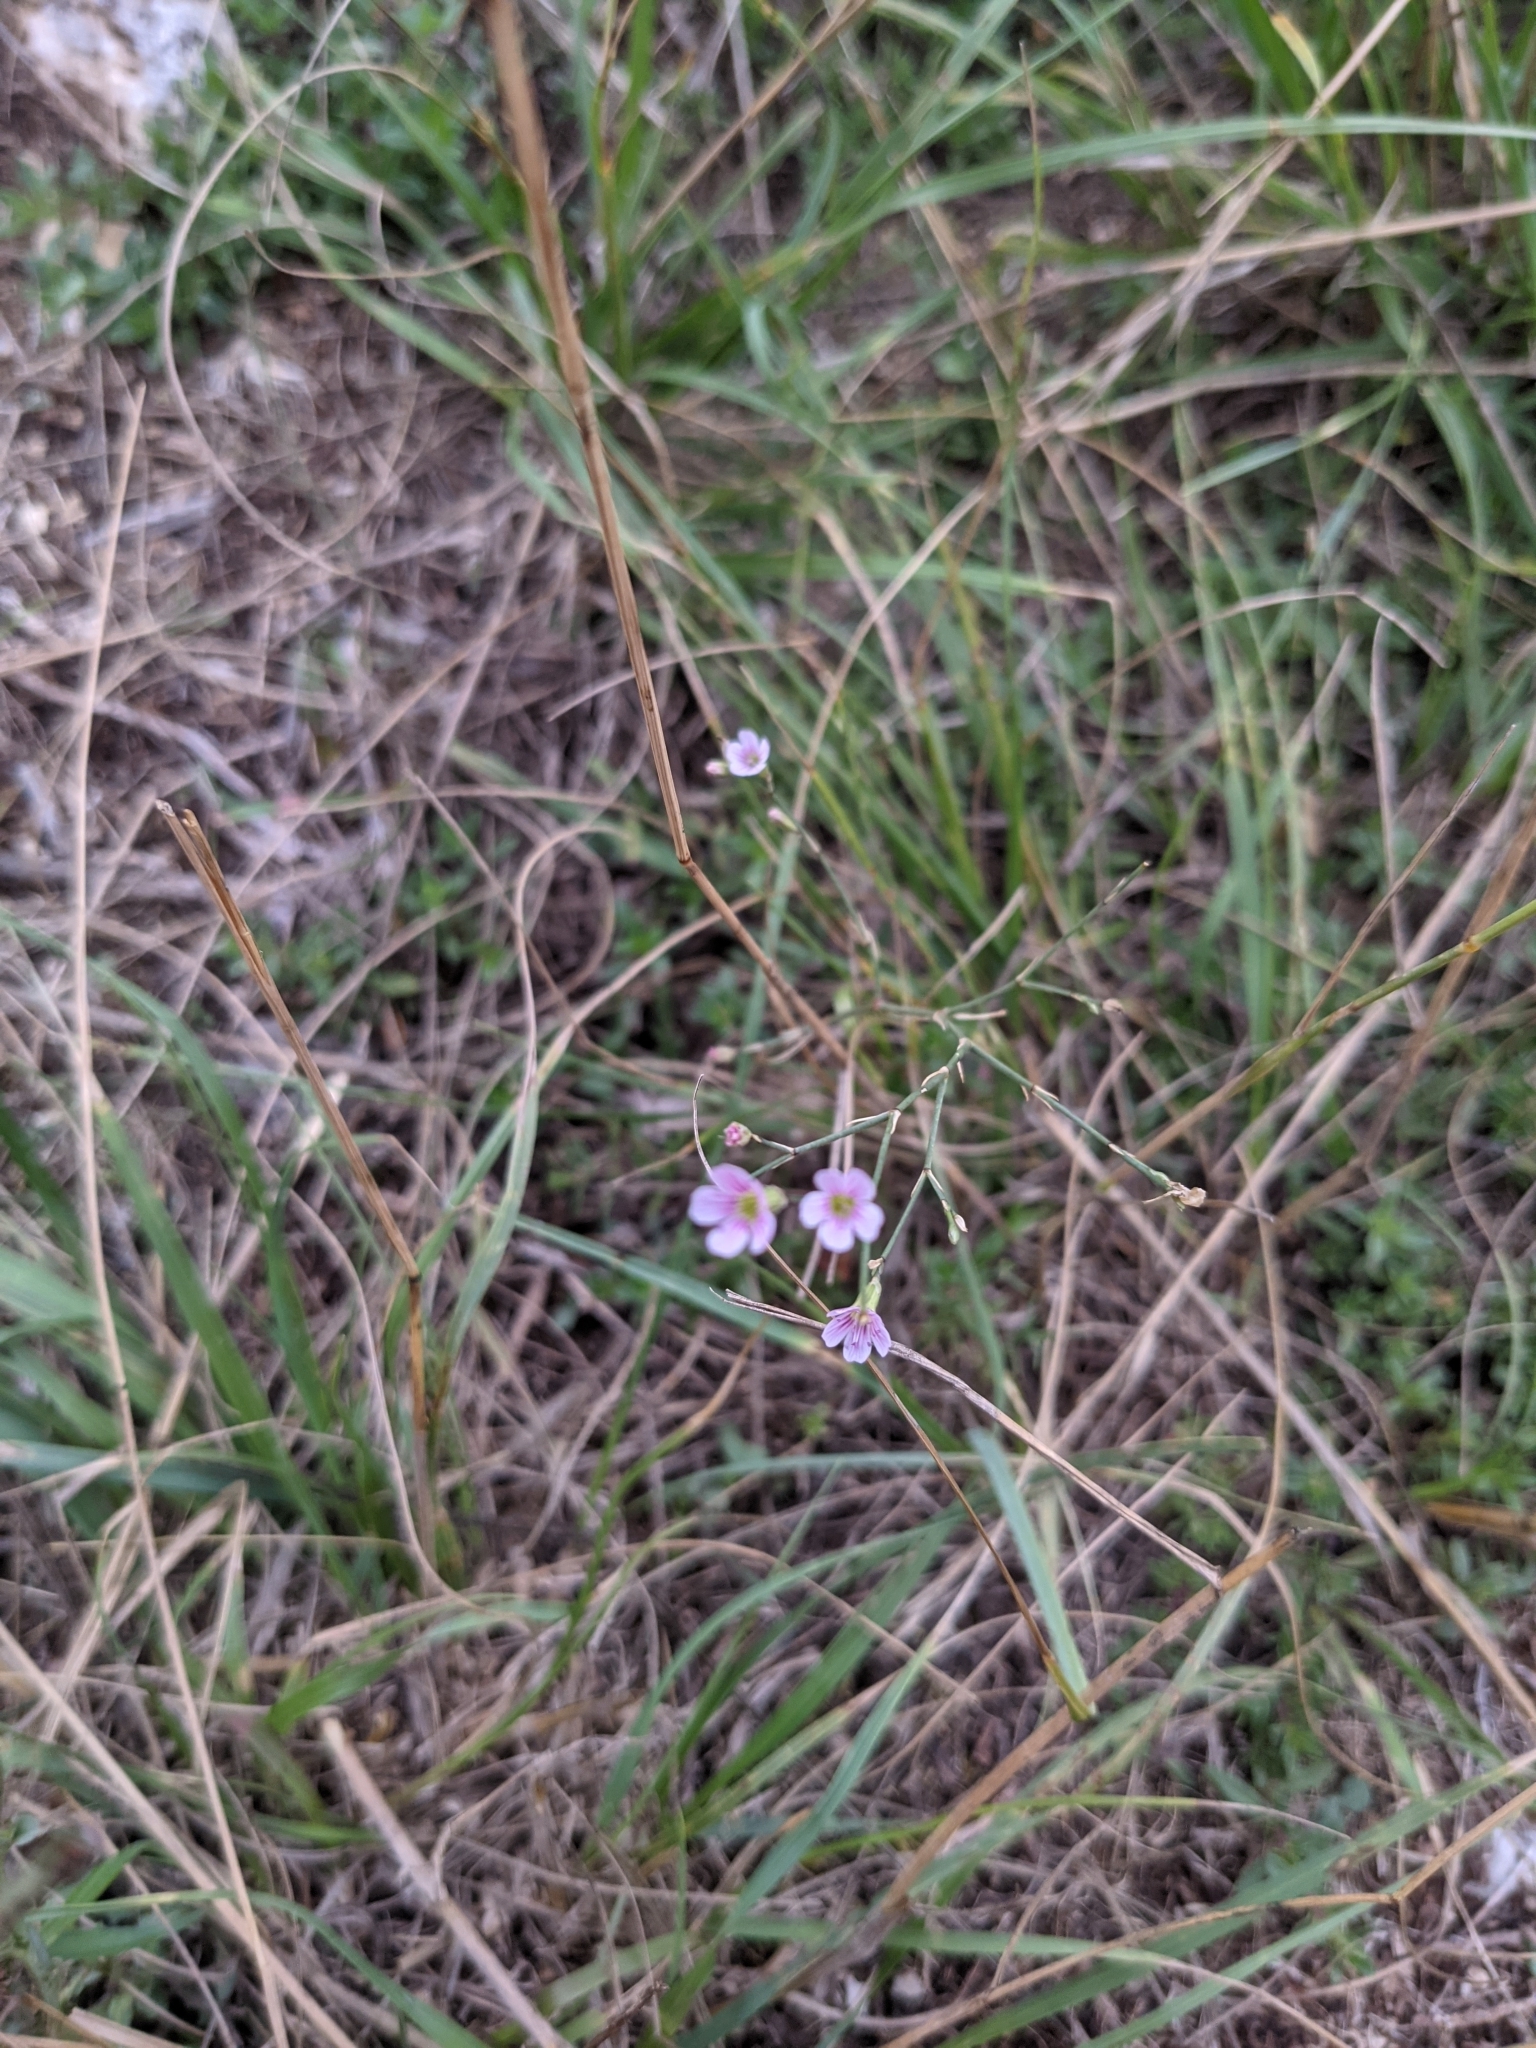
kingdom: Plantae
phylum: Tracheophyta
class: Magnoliopsida
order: Caryophyllales
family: Caryophyllaceae
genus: Petrorhagia
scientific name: Petrorhagia saxifraga
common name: Tunicflower
